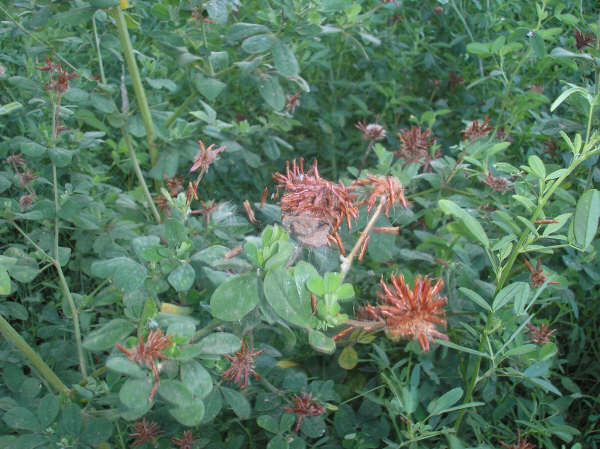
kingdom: Plantae
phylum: Tracheophyta
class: Magnoliopsida
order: Fabales
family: Fabaceae
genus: Lotus
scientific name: Lotus rectus
